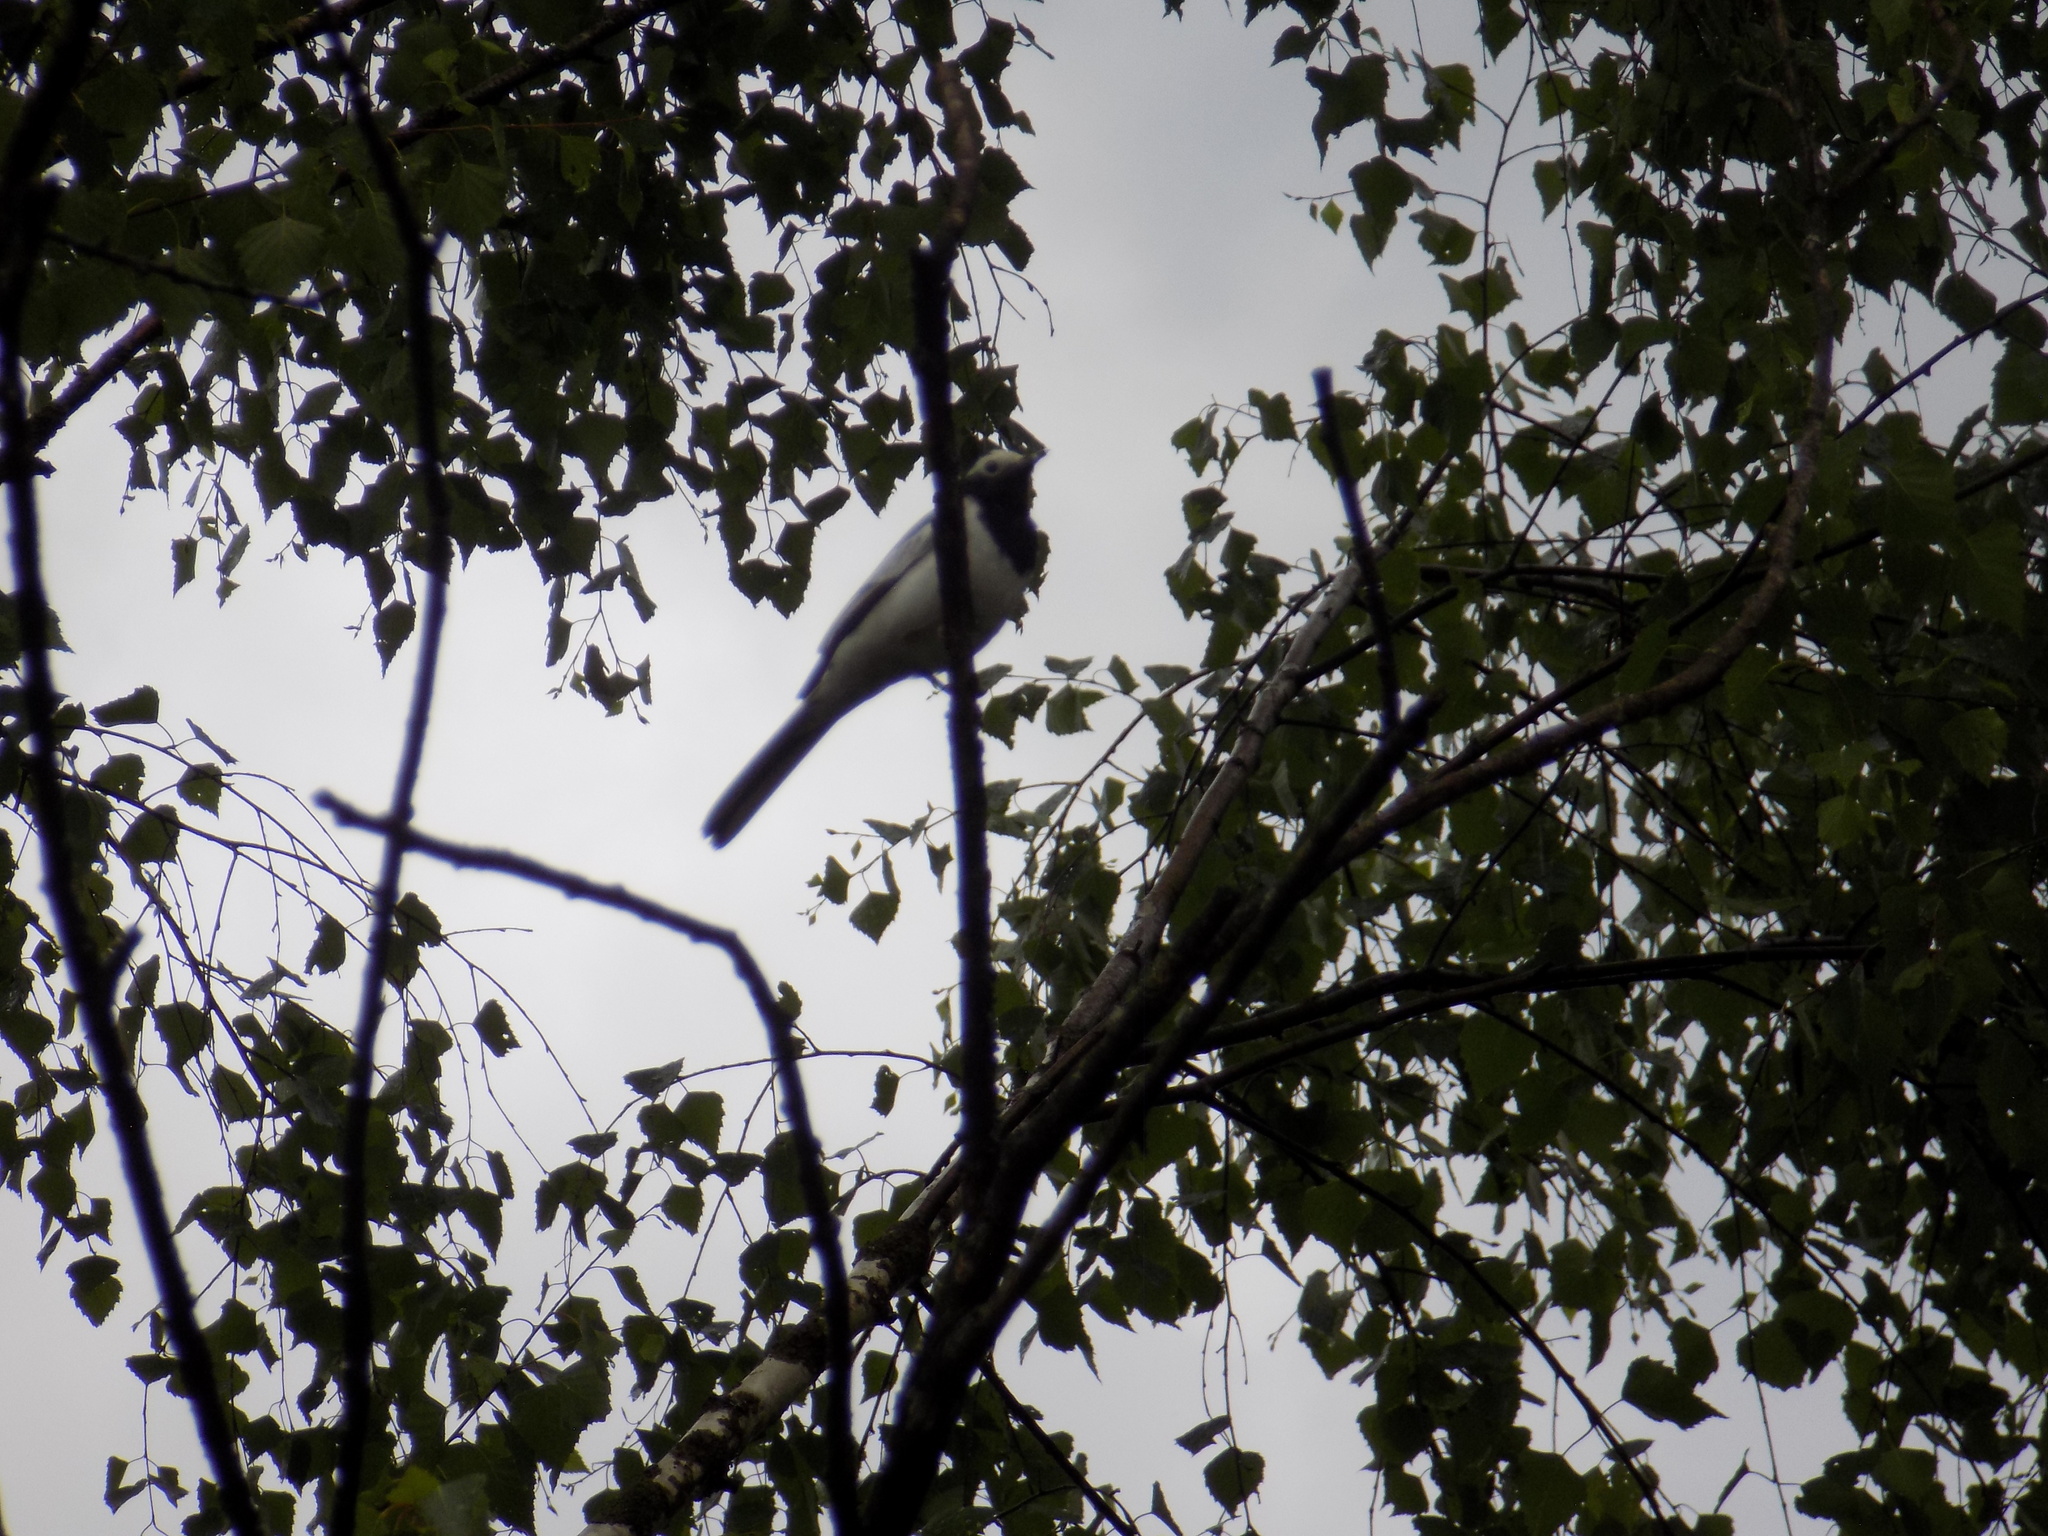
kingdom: Animalia
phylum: Chordata
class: Aves
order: Passeriformes
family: Motacillidae
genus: Motacilla
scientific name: Motacilla alba
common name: White wagtail
